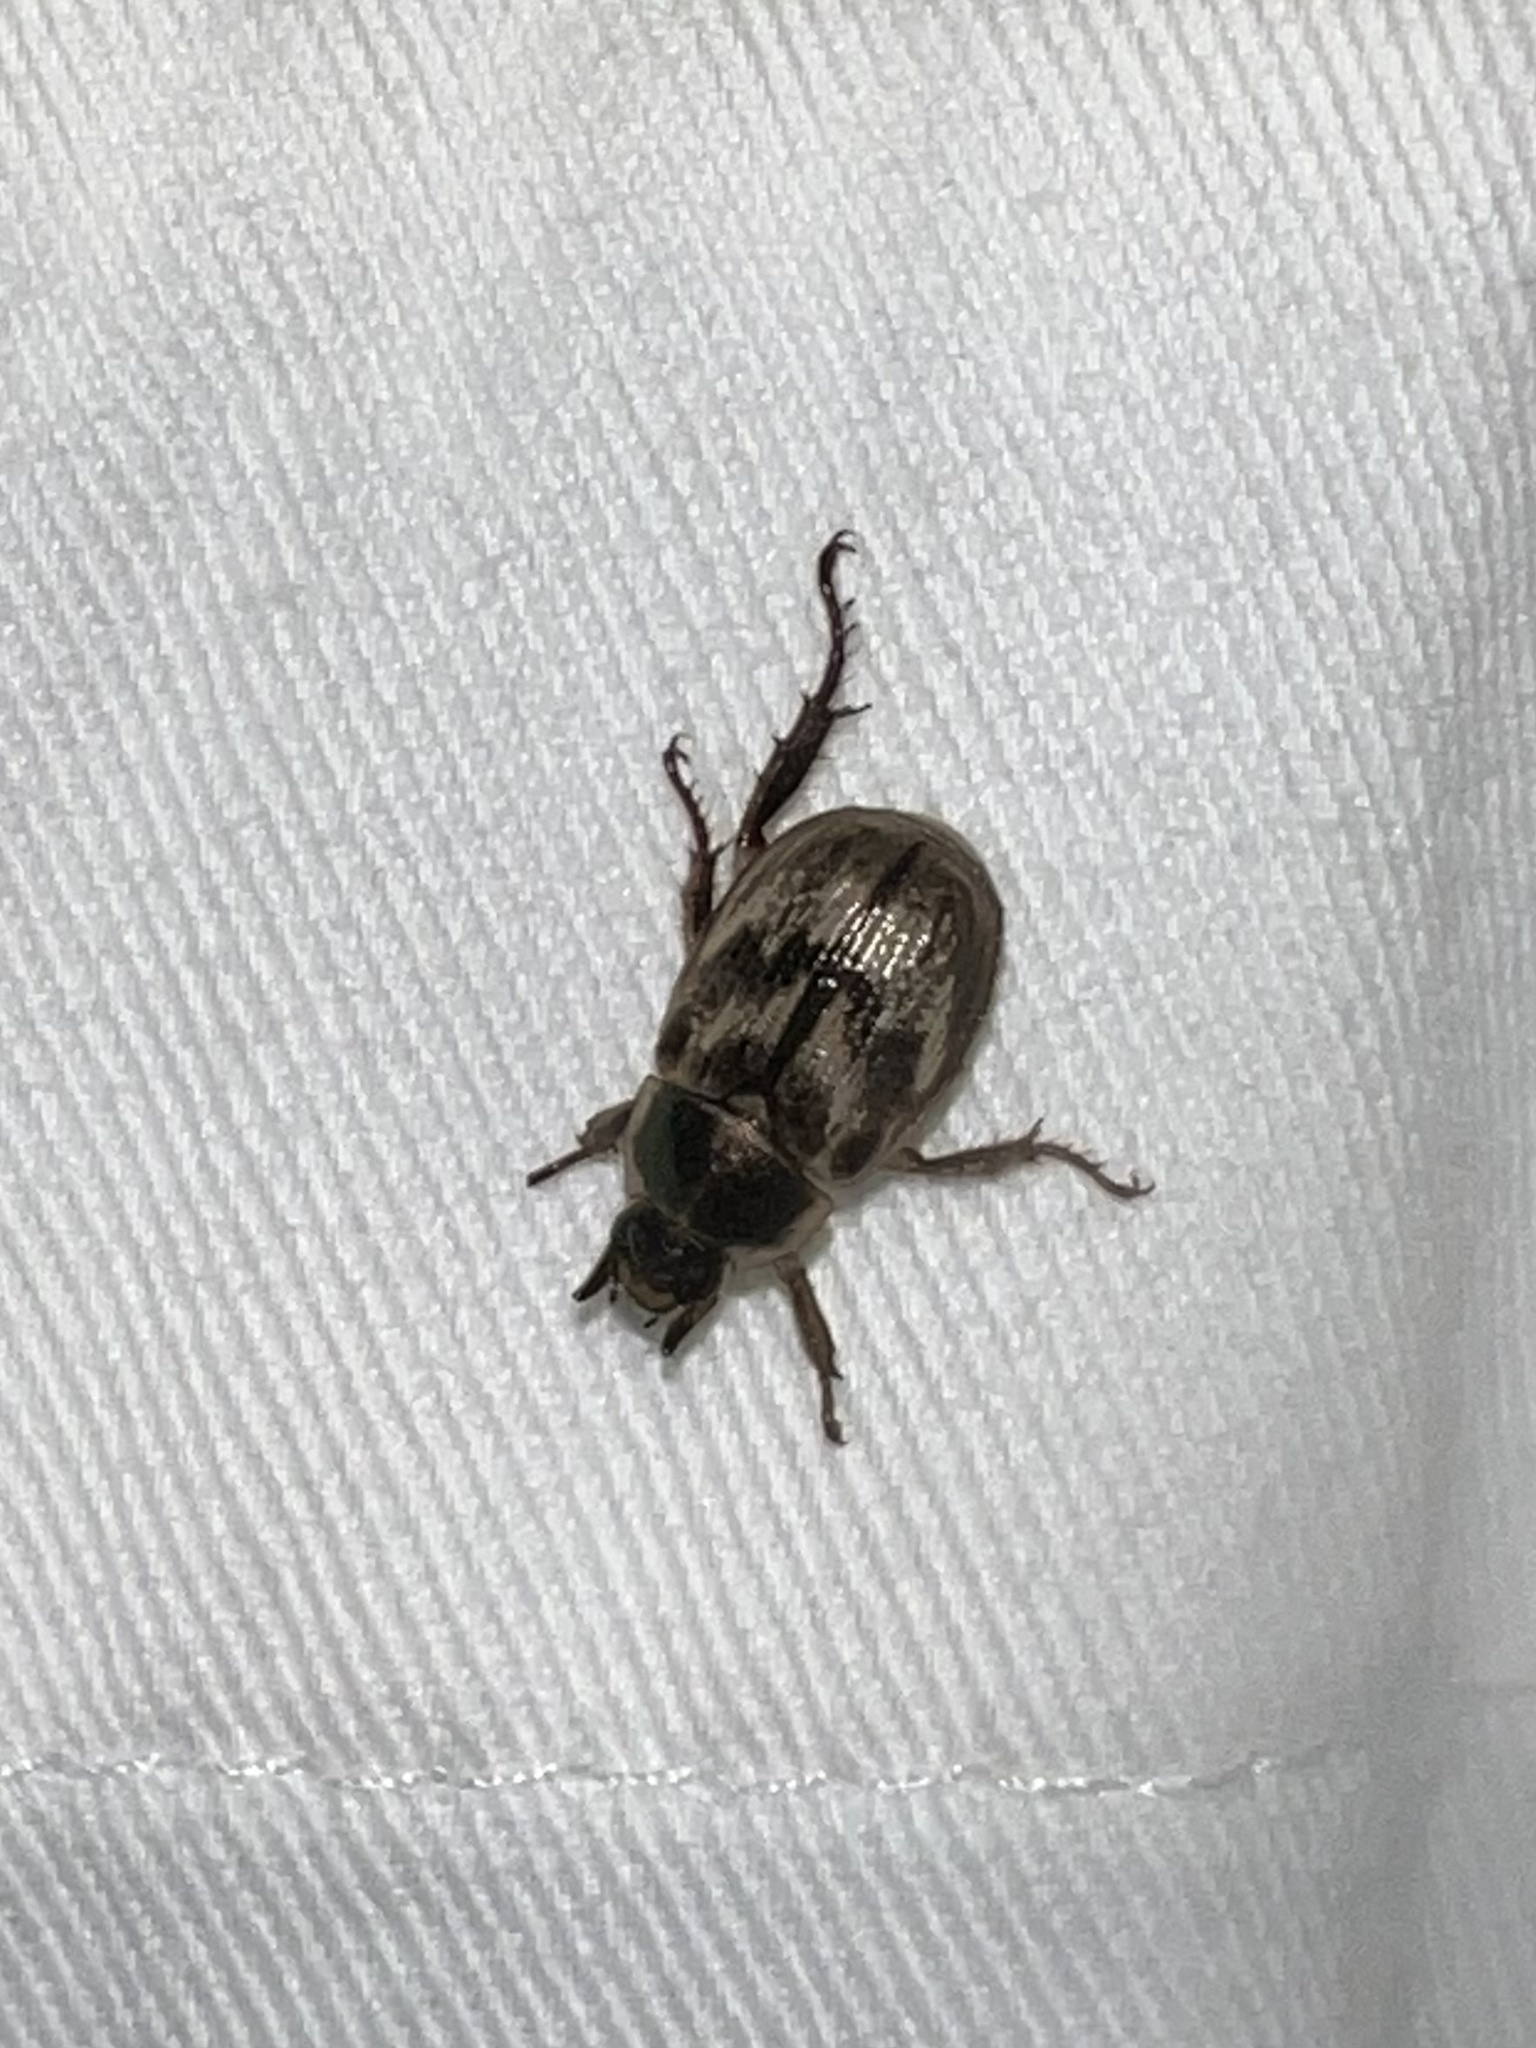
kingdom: Animalia
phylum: Arthropoda
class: Insecta
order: Coleoptera
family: Scarabaeidae
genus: Exomala
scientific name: Exomala orientalis
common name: Oriental beetle
